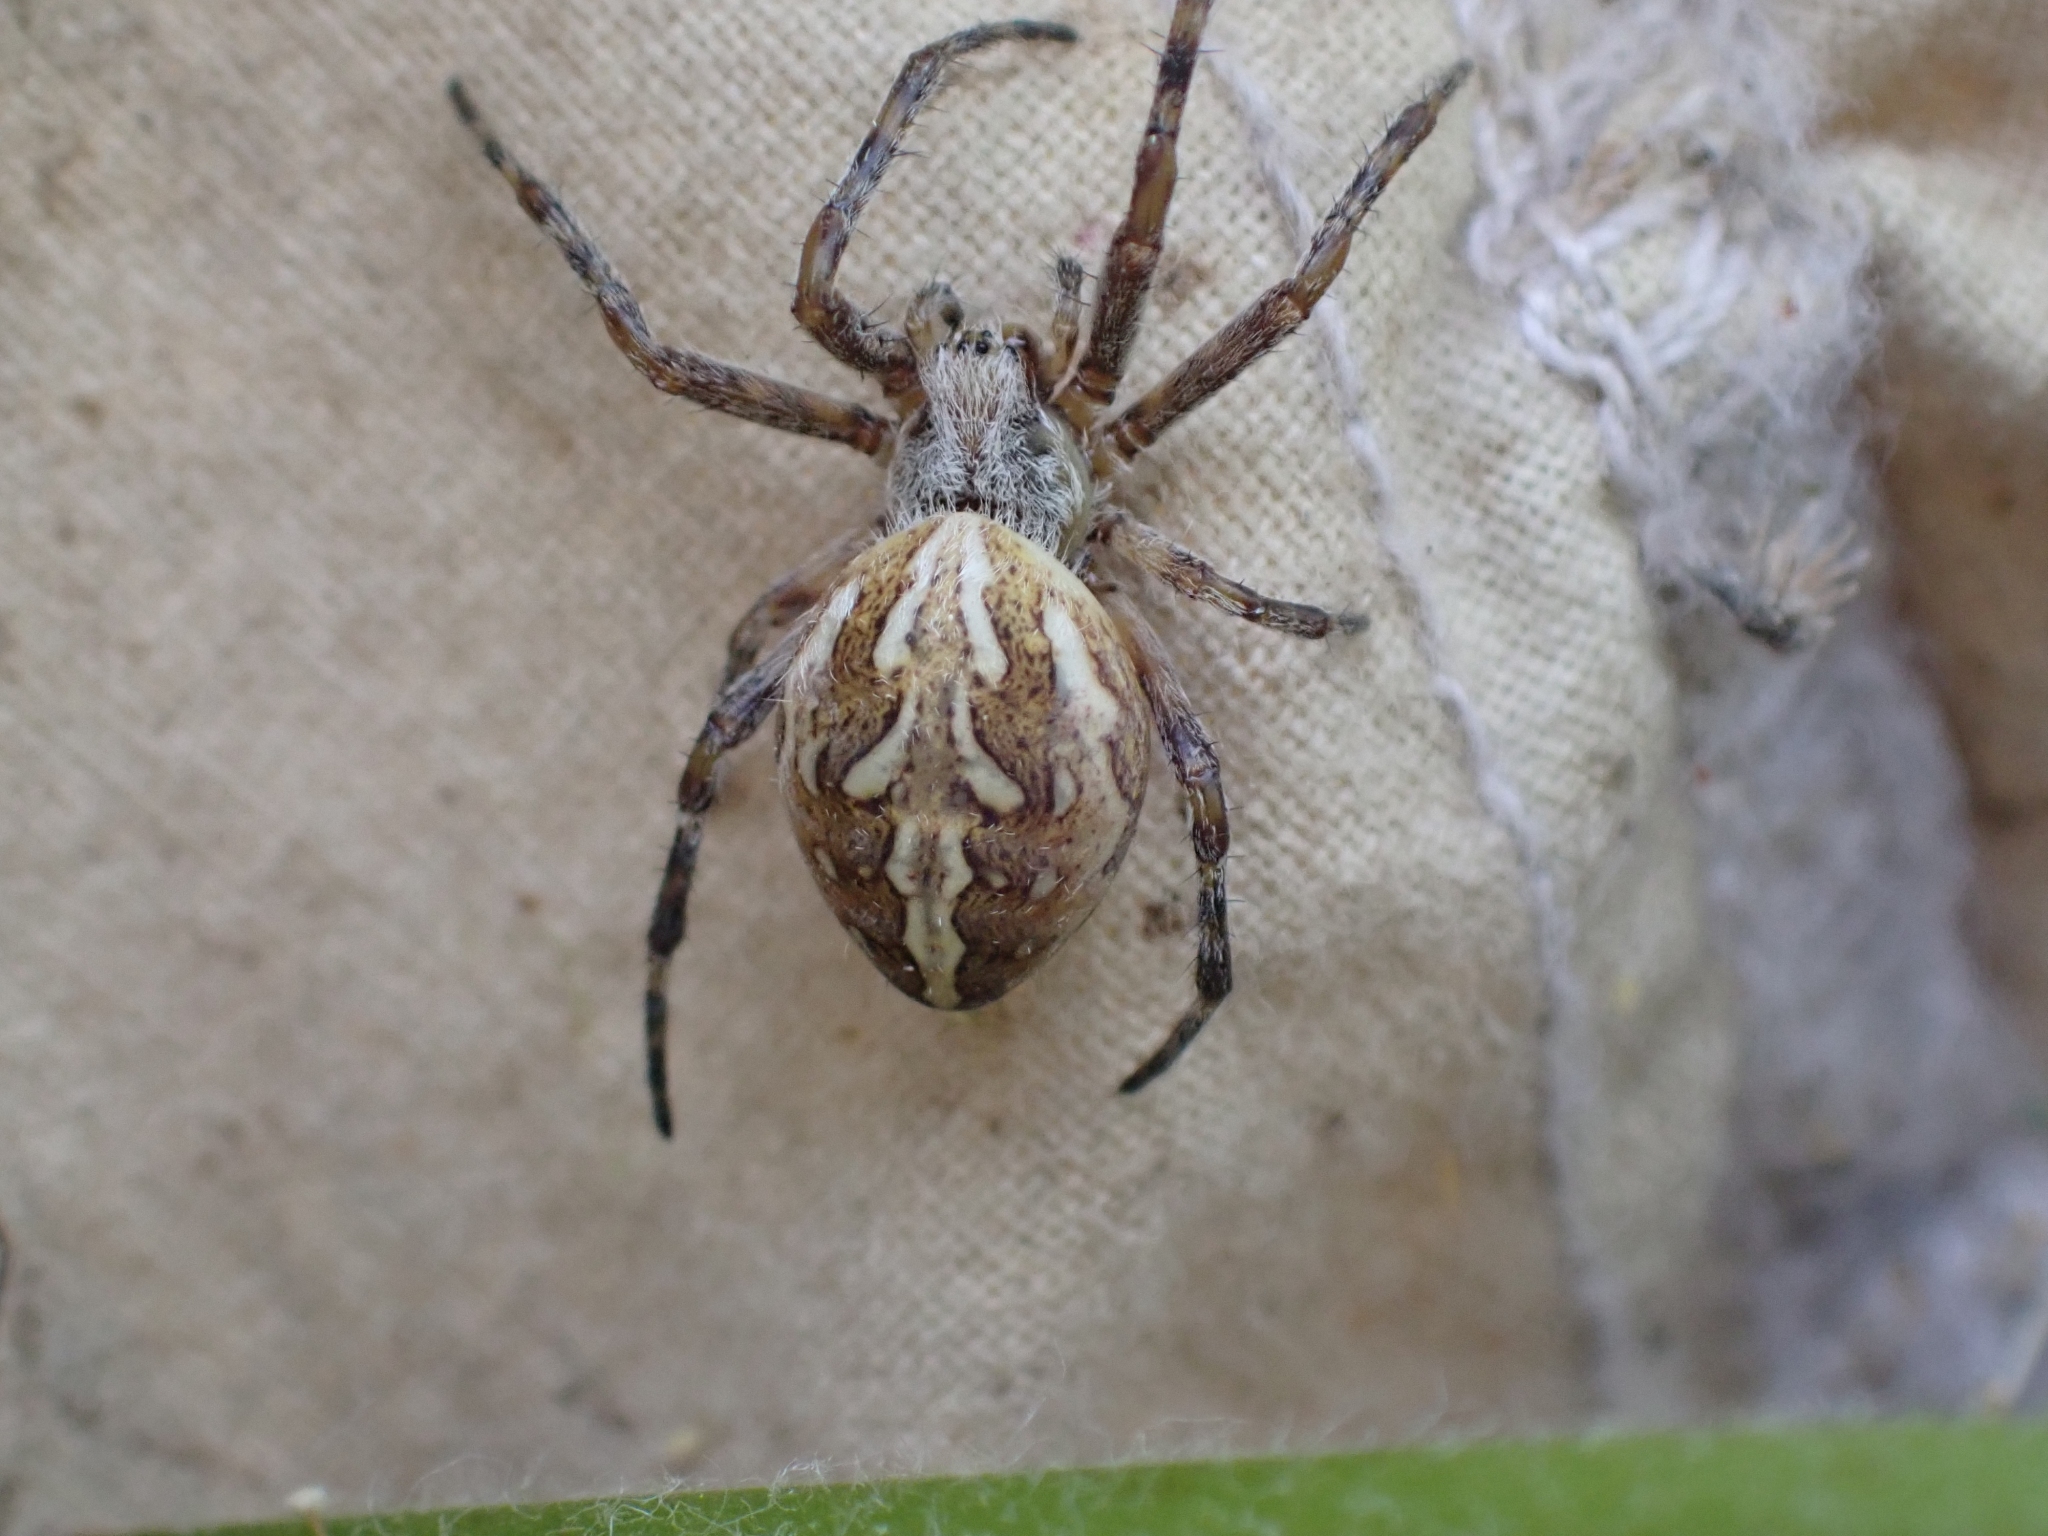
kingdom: Animalia
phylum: Arthropoda
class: Arachnida
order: Araneae
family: Araneidae
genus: Aculepeira
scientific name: Aculepeira packardi
